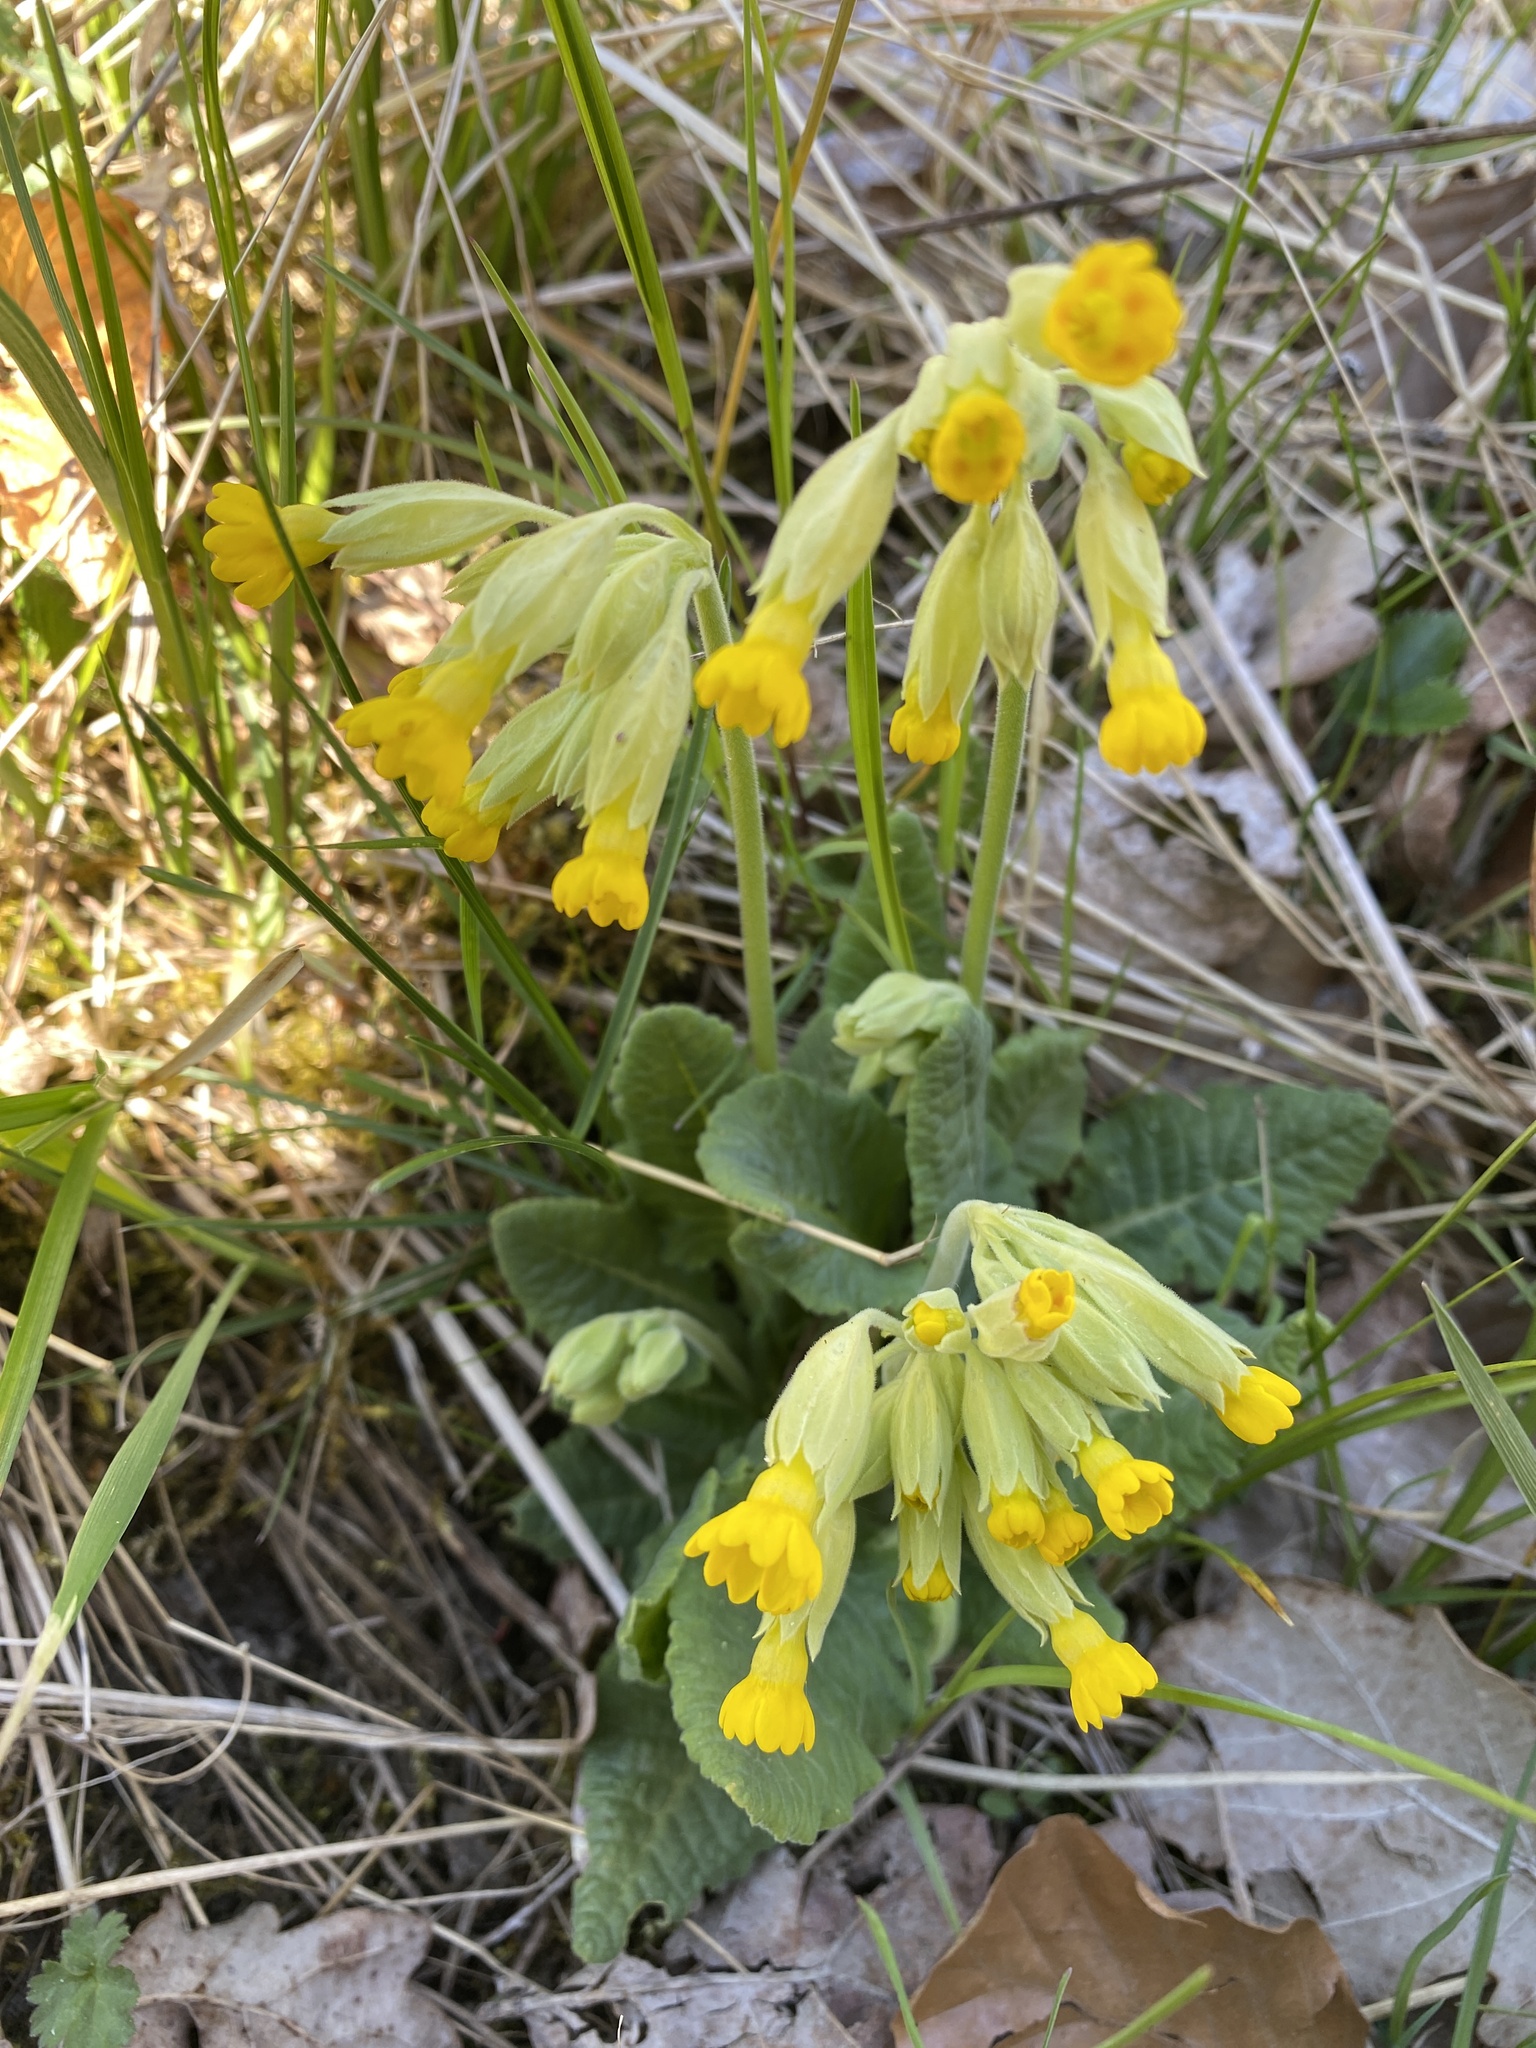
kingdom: Plantae
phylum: Tracheophyta
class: Magnoliopsida
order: Ericales
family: Primulaceae
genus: Primula
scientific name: Primula veris
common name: Cowslip
